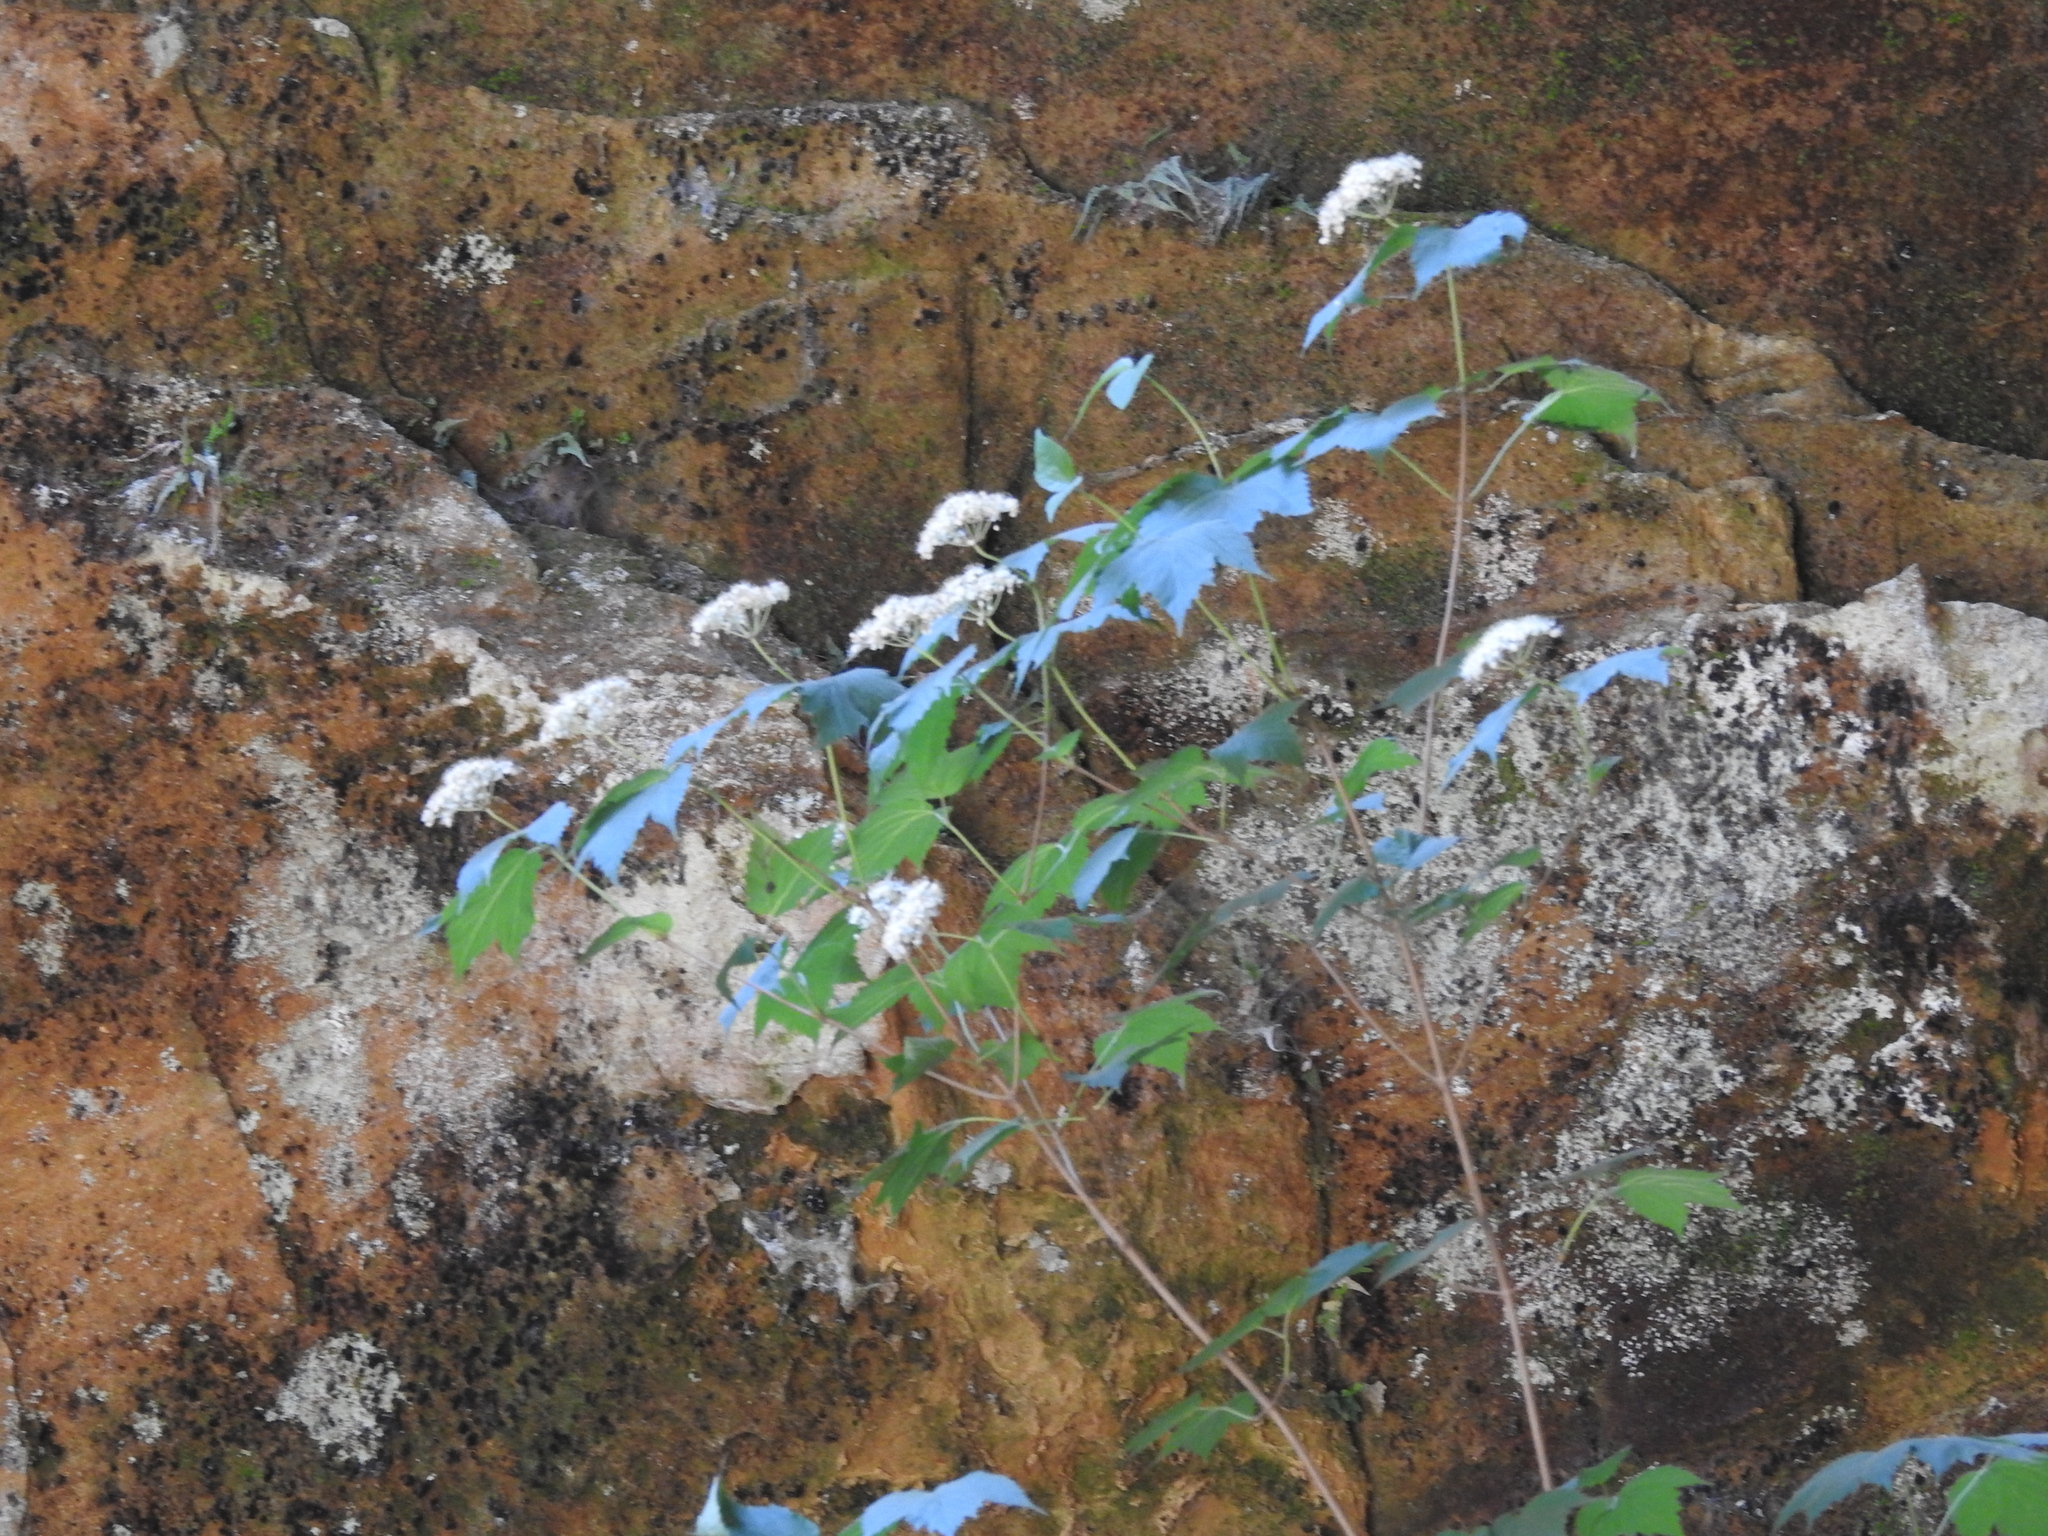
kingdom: Plantae
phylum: Tracheophyta
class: Magnoliopsida
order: Dipsacales
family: Viburnaceae
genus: Viburnum
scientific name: Viburnum acerifolium
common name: Dockmackie
